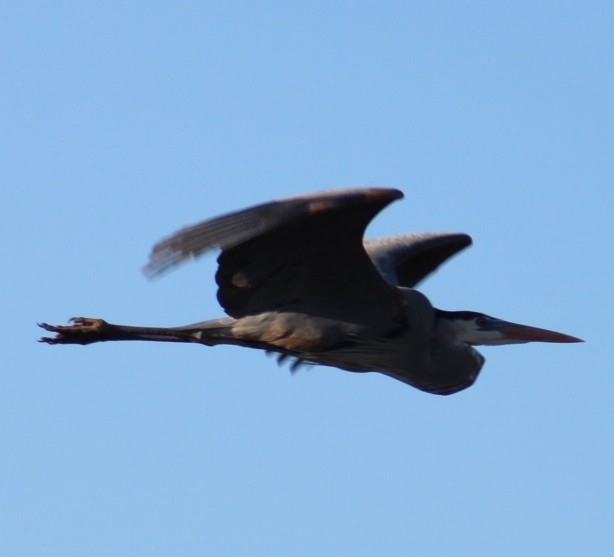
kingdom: Animalia
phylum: Chordata
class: Aves
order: Pelecaniformes
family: Ardeidae
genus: Ardea
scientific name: Ardea herodias
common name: Great blue heron
